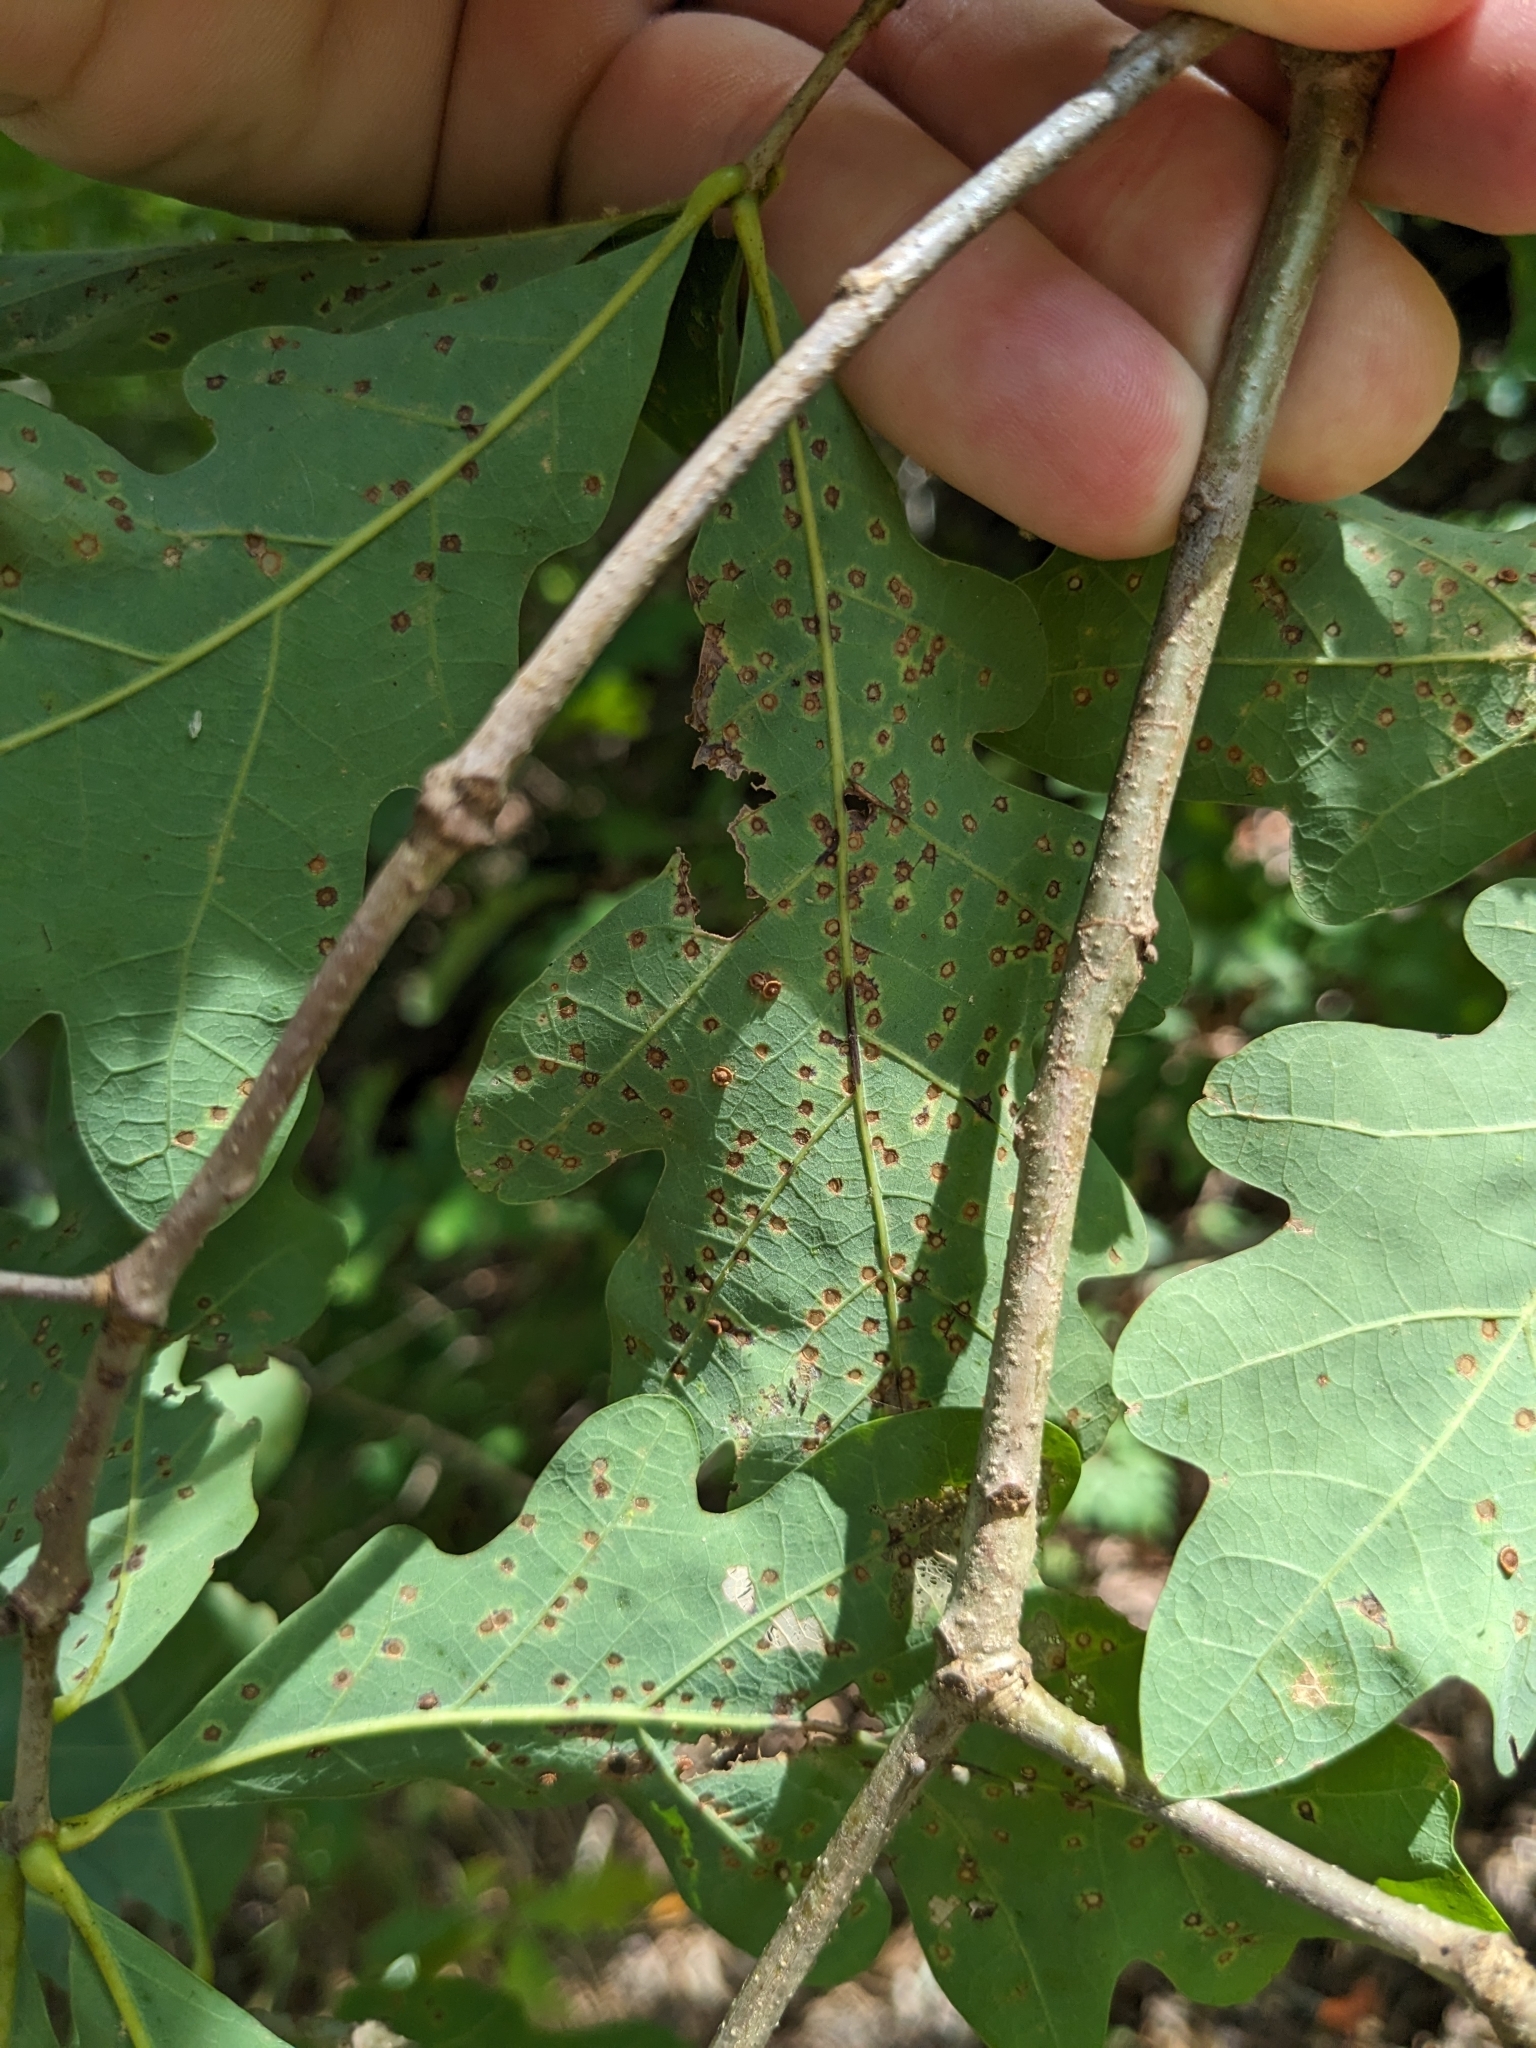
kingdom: Animalia
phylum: Arthropoda
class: Insecta
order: Hymenoptera
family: Cynipidae
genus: Neuroterus
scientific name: Neuroterus
